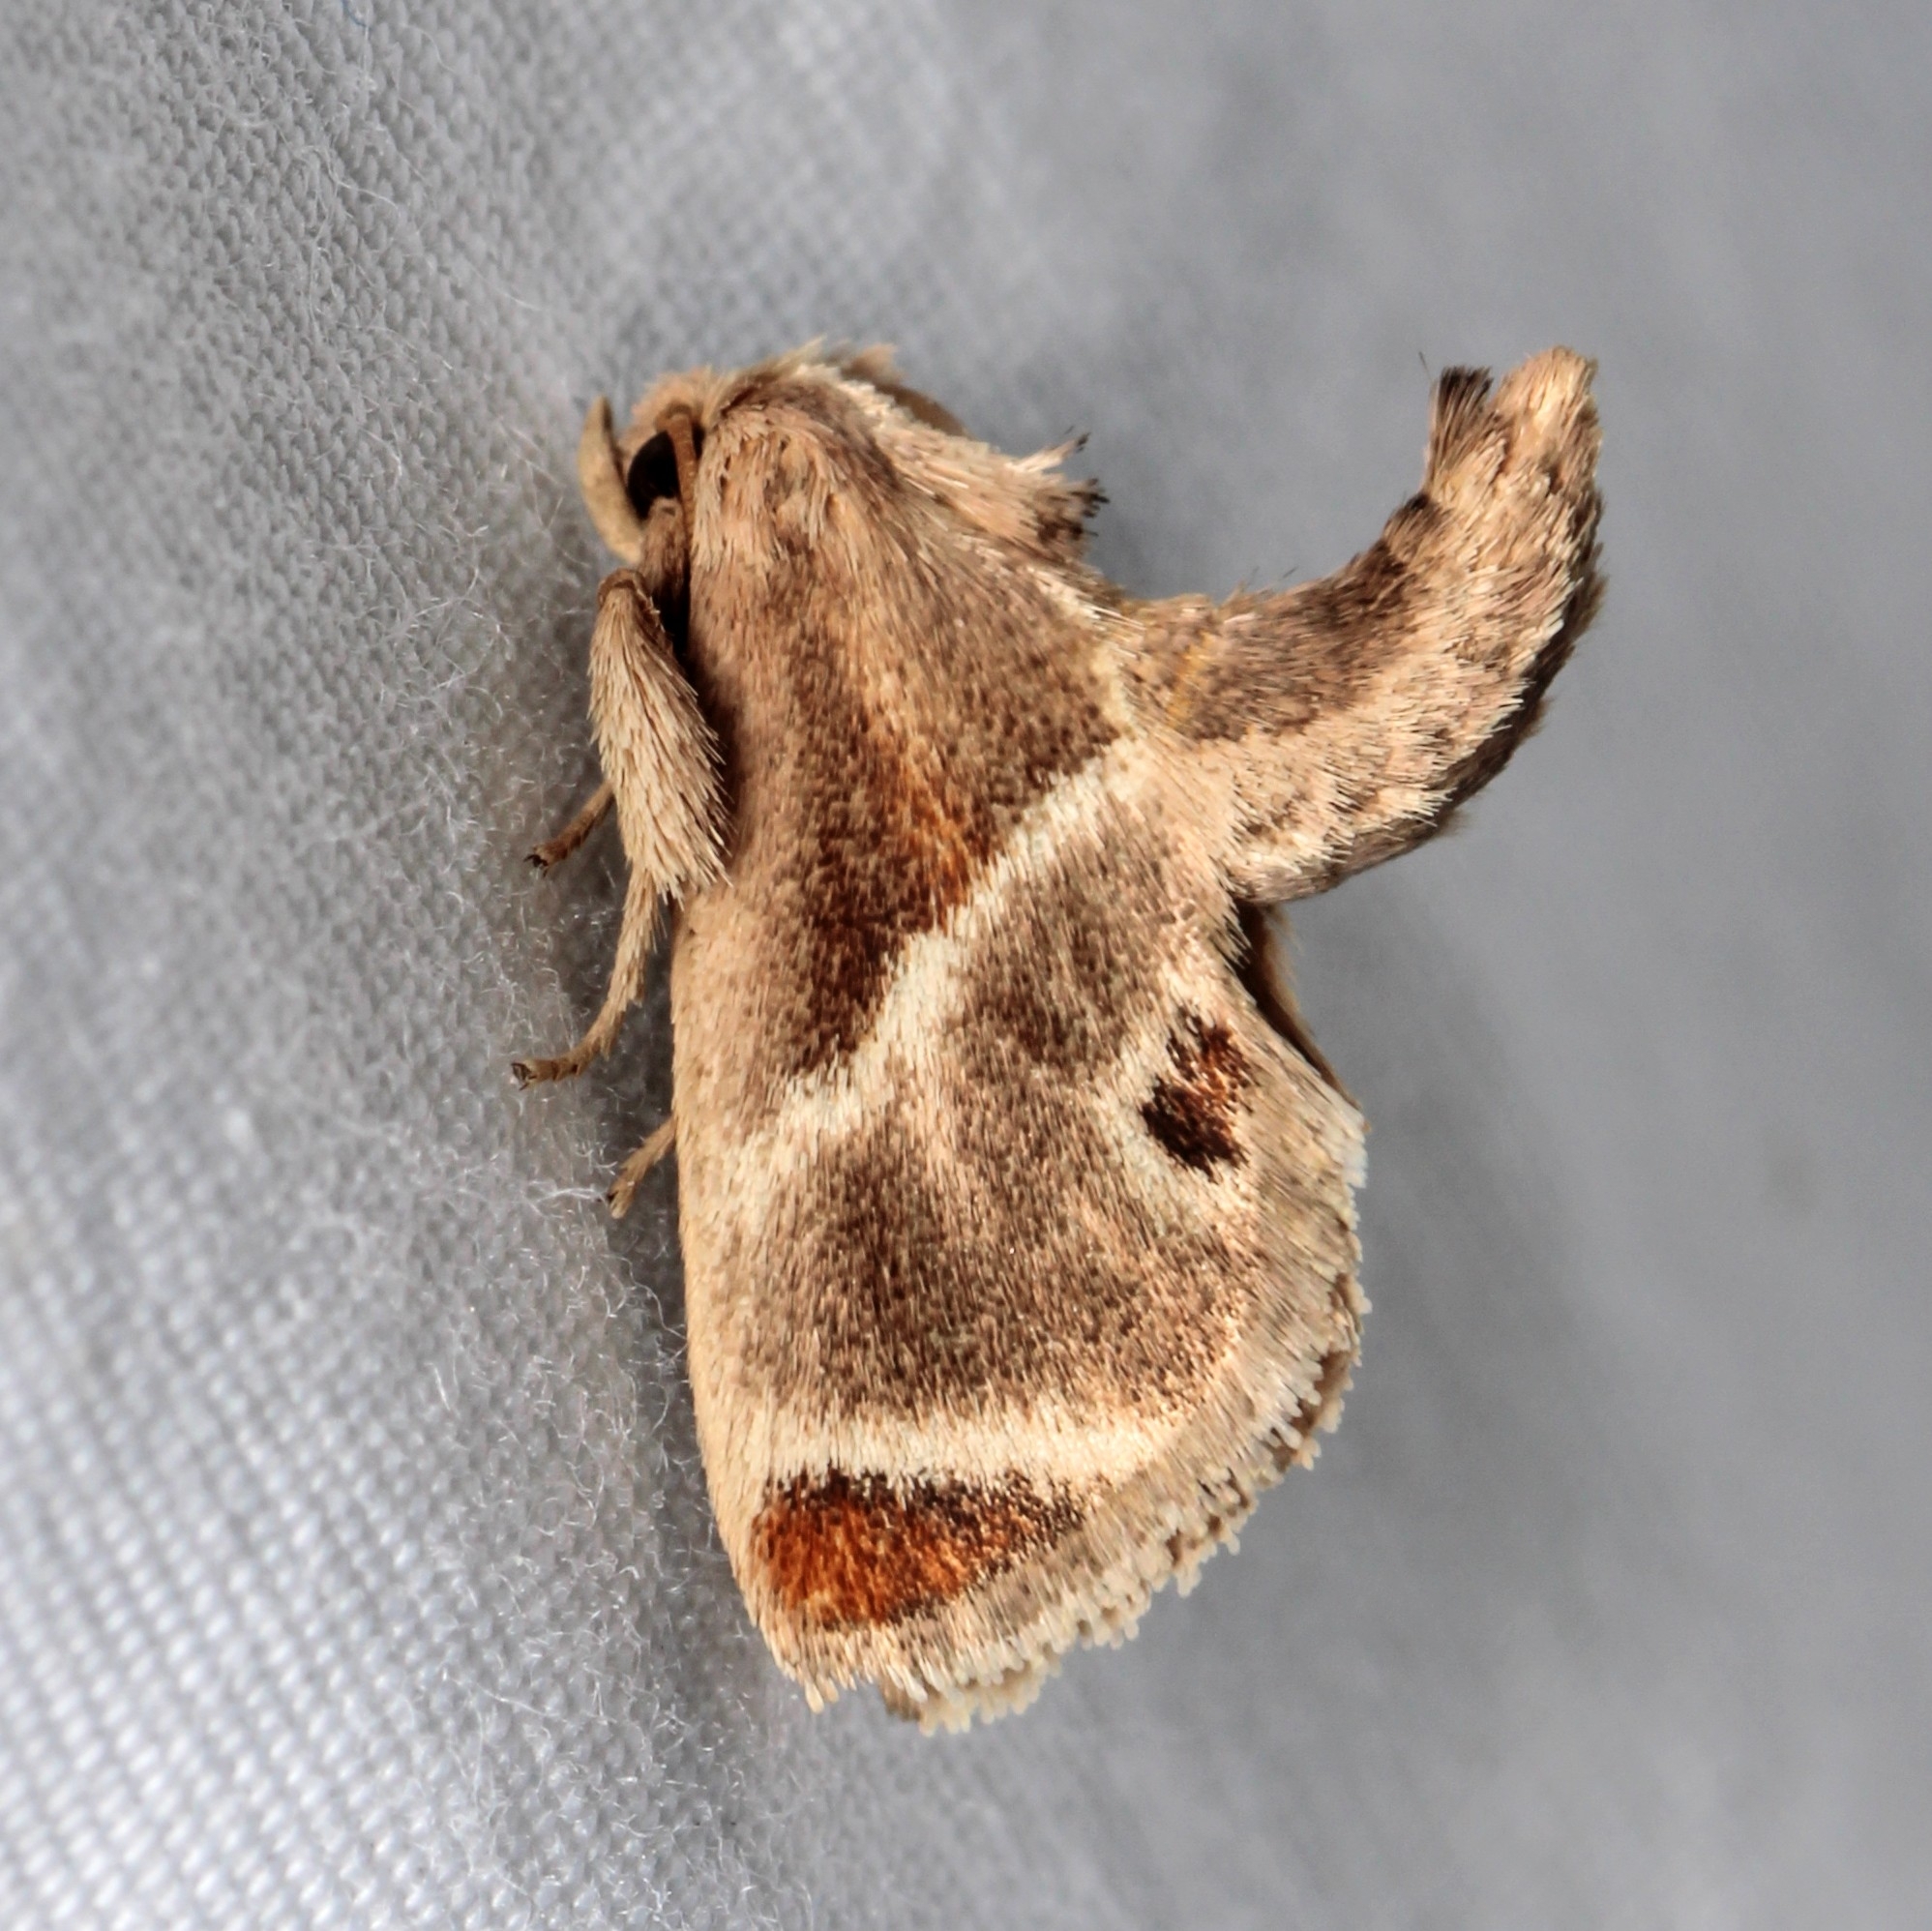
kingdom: Animalia
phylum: Arthropoda
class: Insecta
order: Lepidoptera
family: Limacodidae
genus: Apoda
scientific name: Apoda biguttata
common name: Shagreened slug moth
